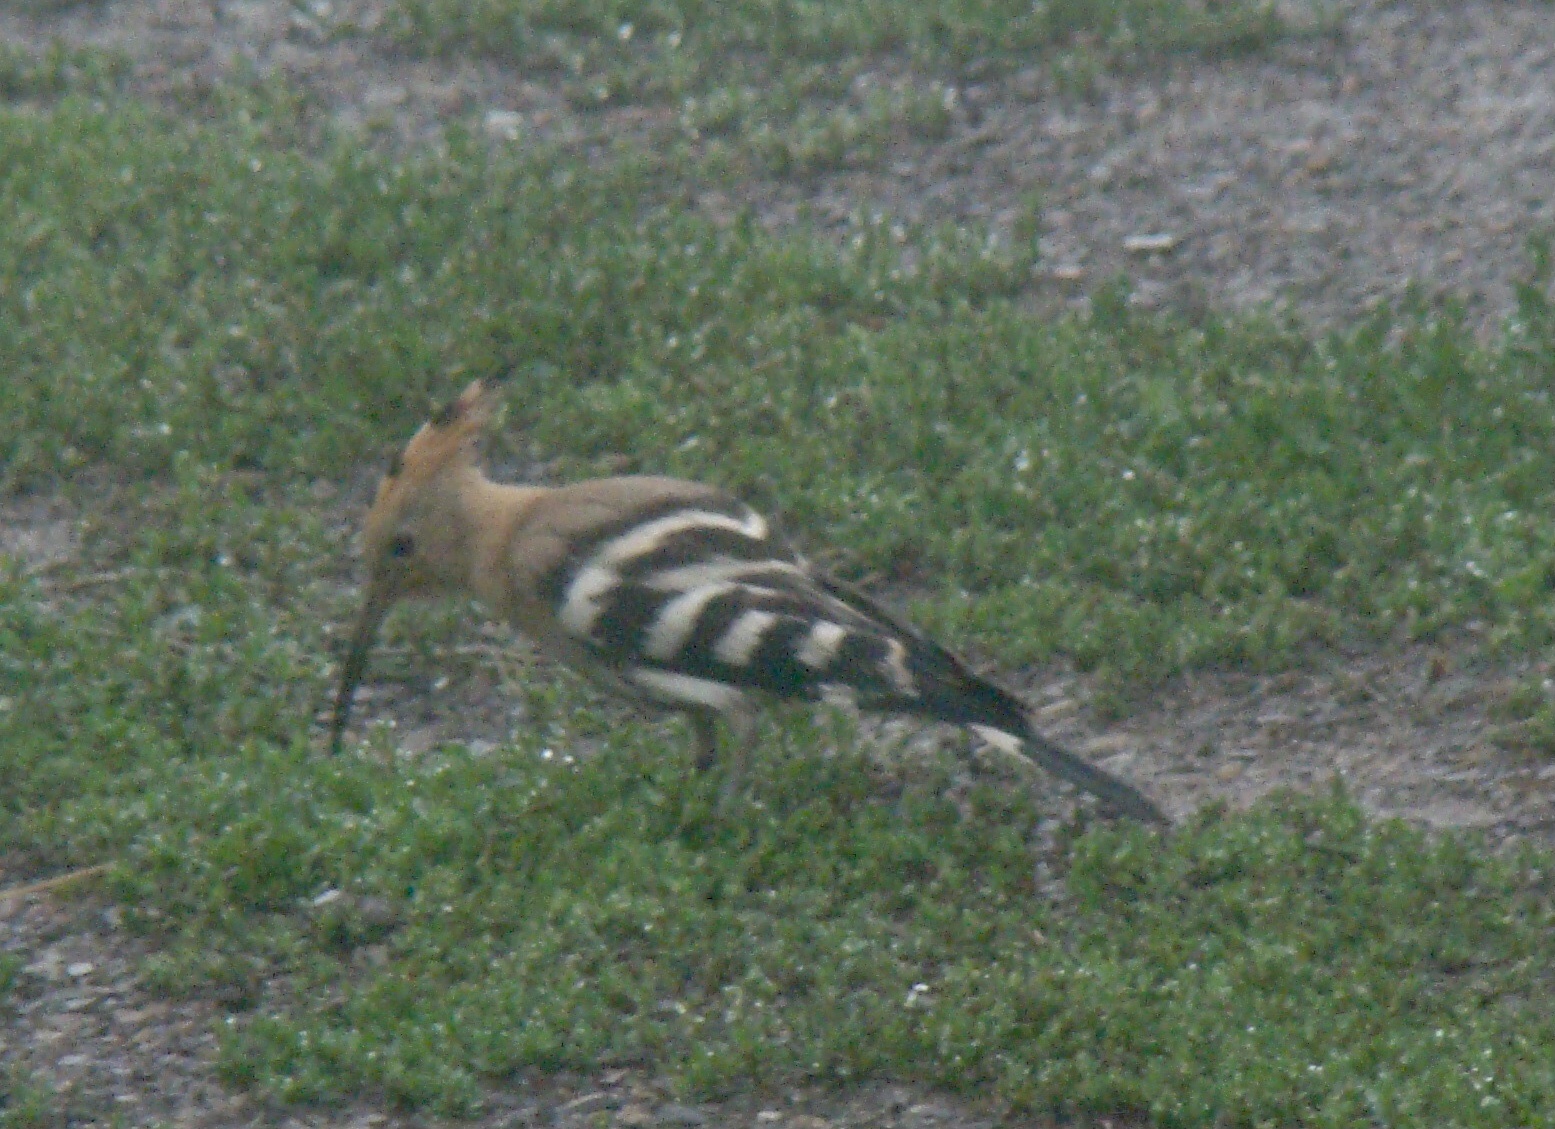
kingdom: Animalia
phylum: Chordata
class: Aves
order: Bucerotiformes
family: Upupidae
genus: Upupa
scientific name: Upupa epops
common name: Eurasian hoopoe
